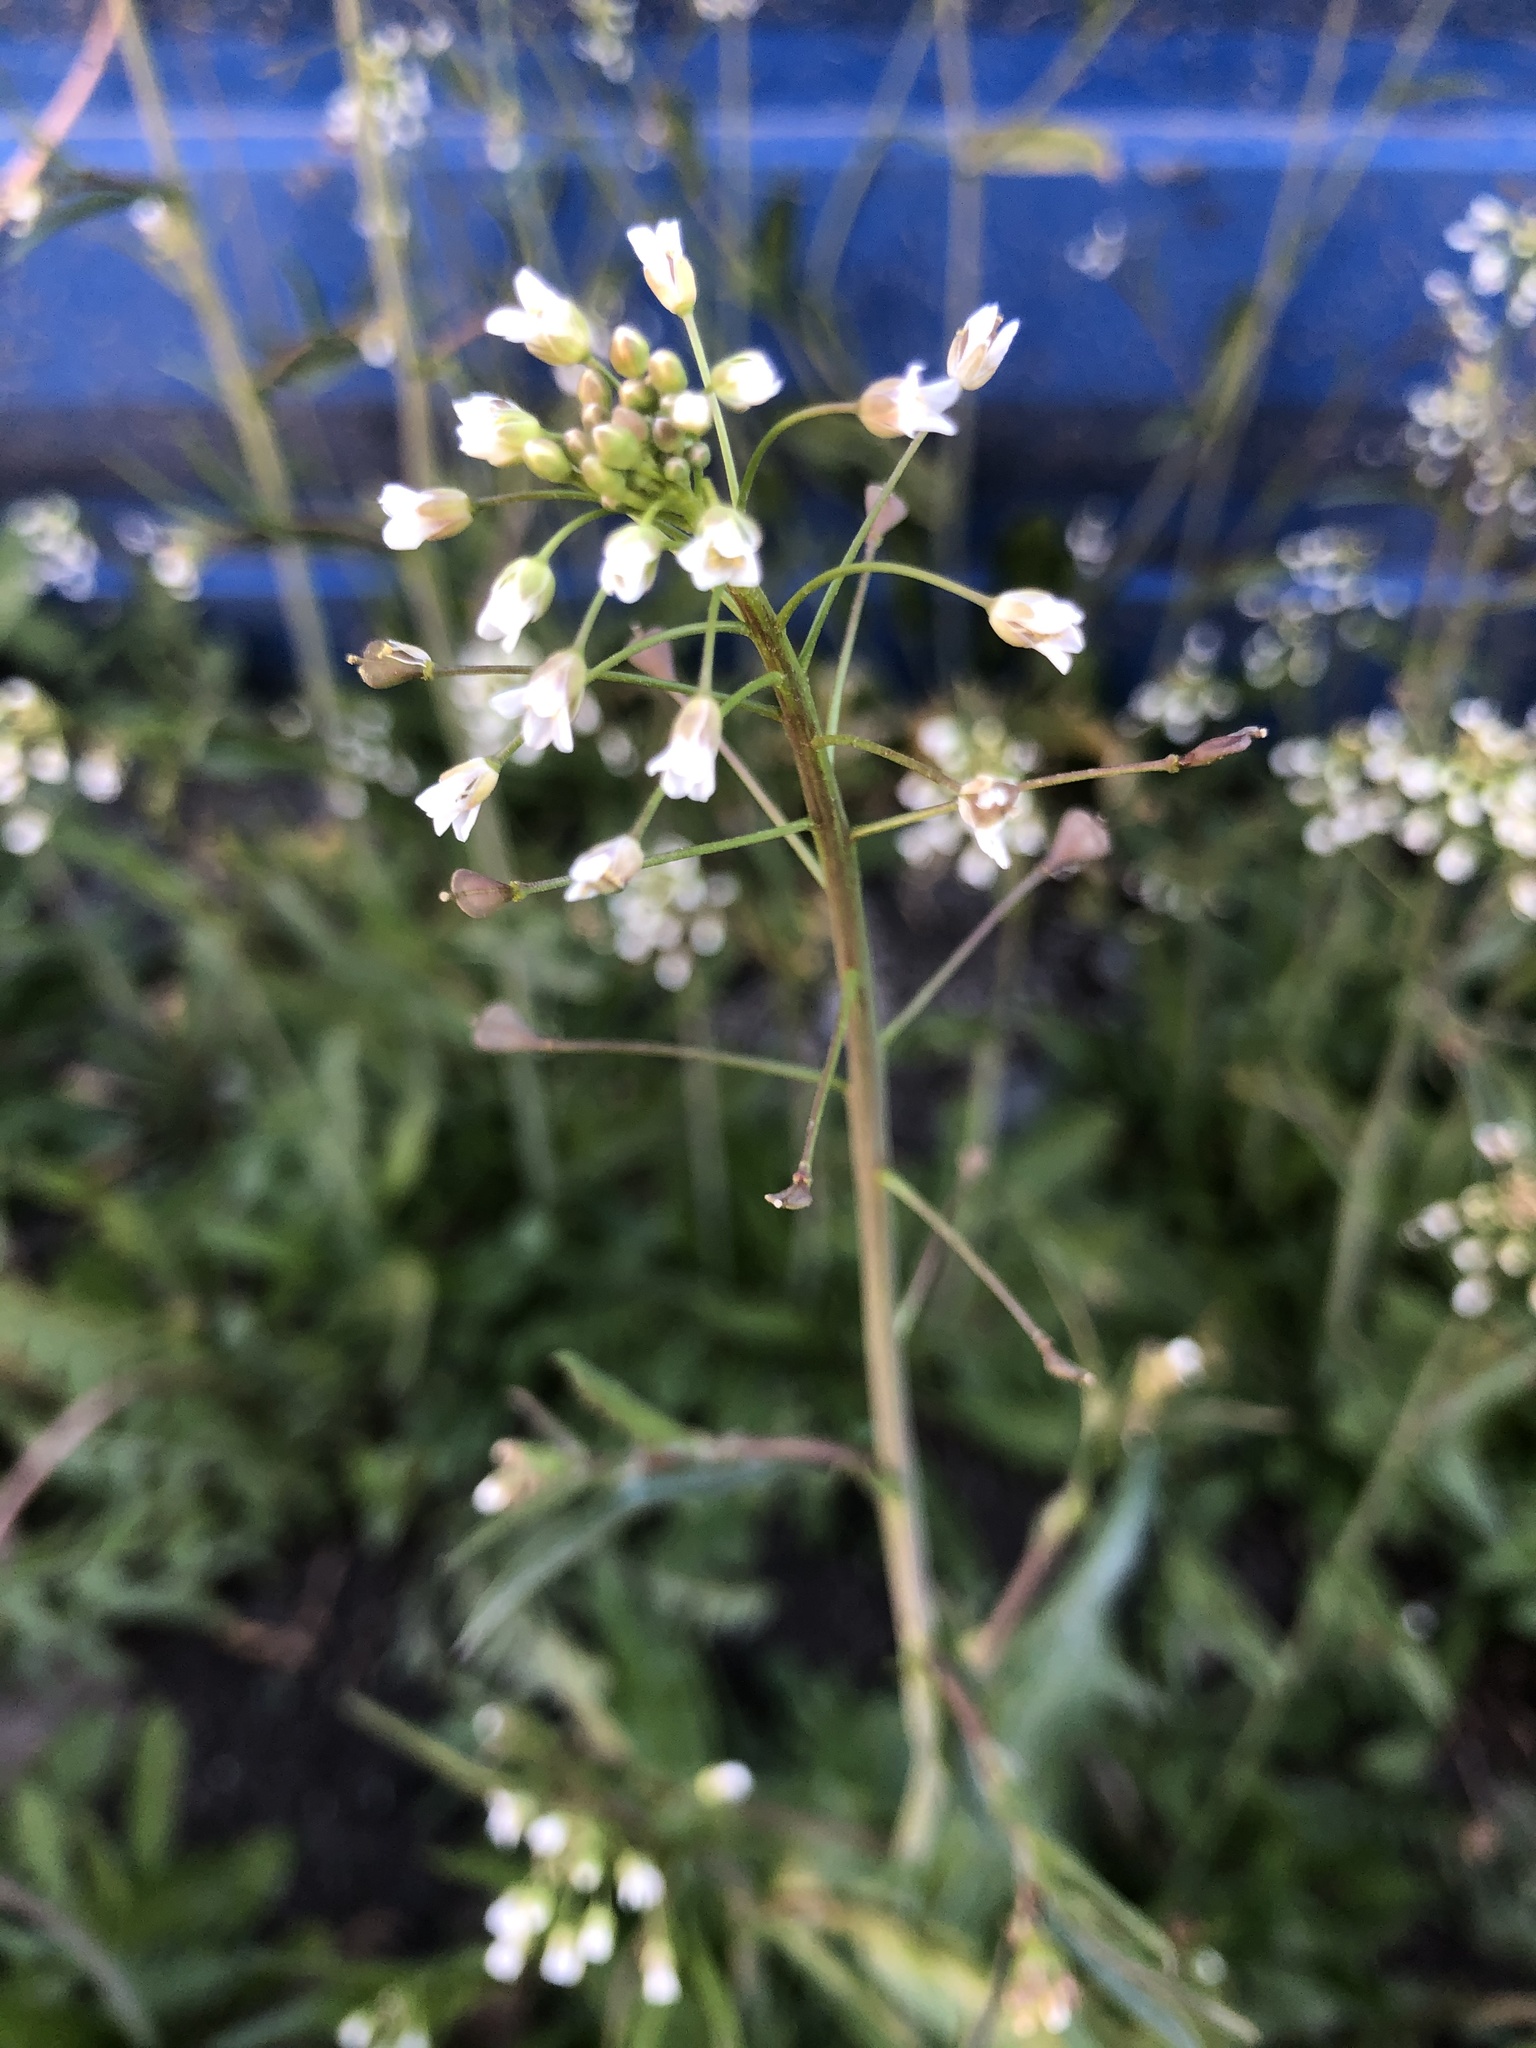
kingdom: Plantae
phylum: Tracheophyta
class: Magnoliopsida
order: Brassicales
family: Brassicaceae
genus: Capsella
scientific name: Capsella bursa-pastoris
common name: Shepherd's purse
